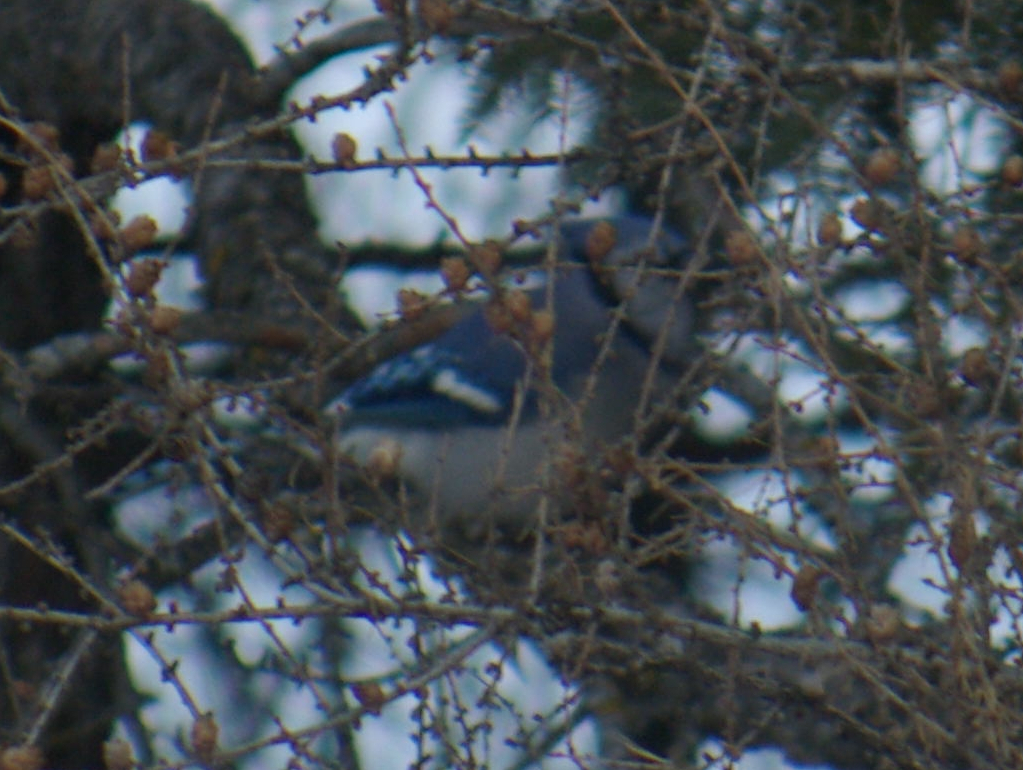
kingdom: Animalia
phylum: Chordata
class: Aves
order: Passeriformes
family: Corvidae
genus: Cyanocitta
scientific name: Cyanocitta cristata
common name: Blue jay
